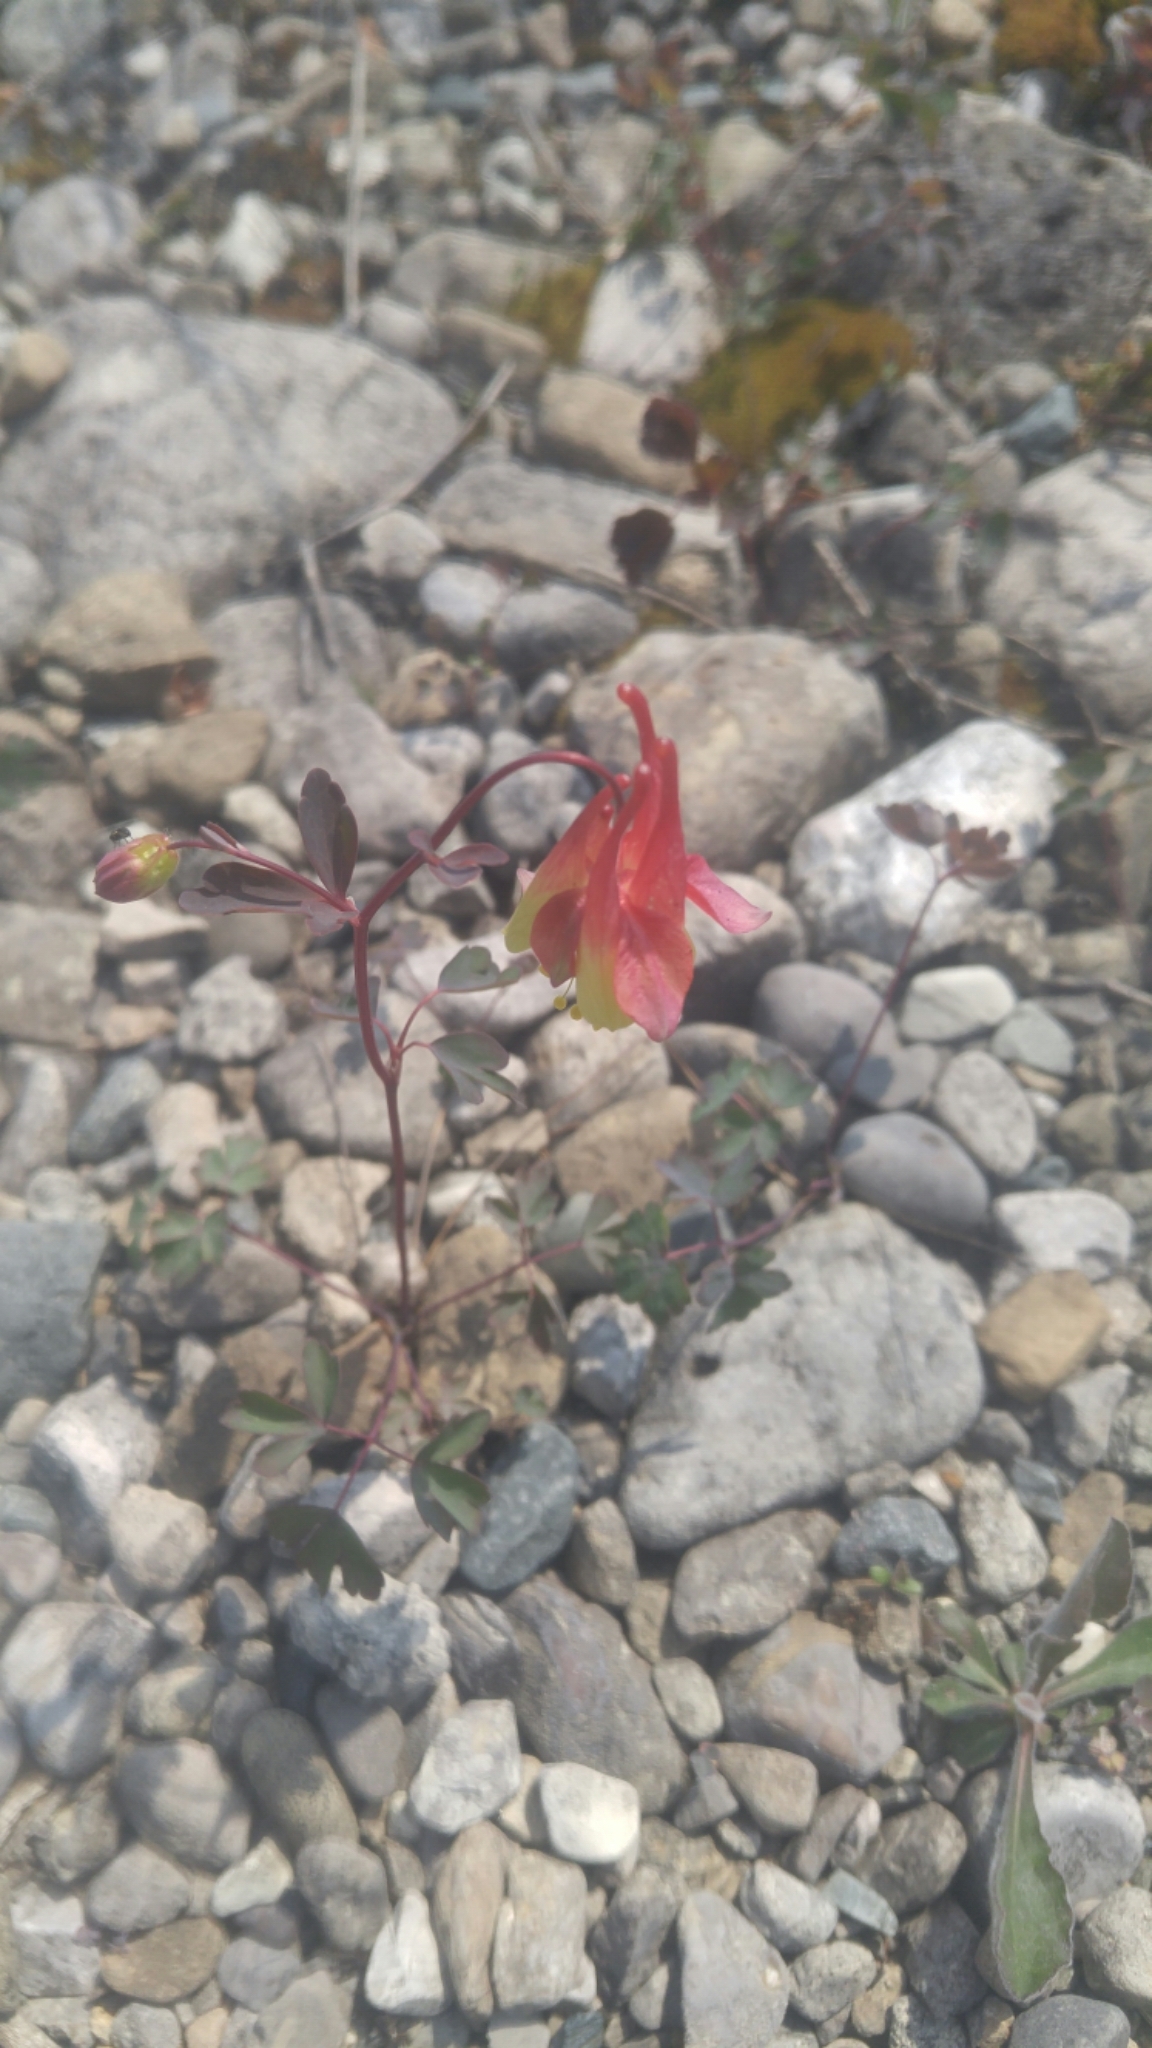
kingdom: Plantae
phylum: Tracheophyta
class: Magnoliopsida
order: Ranunculales
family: Ranunculaceae
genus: Aquilegia
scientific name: Aquilegia canadensis
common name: American columbine
